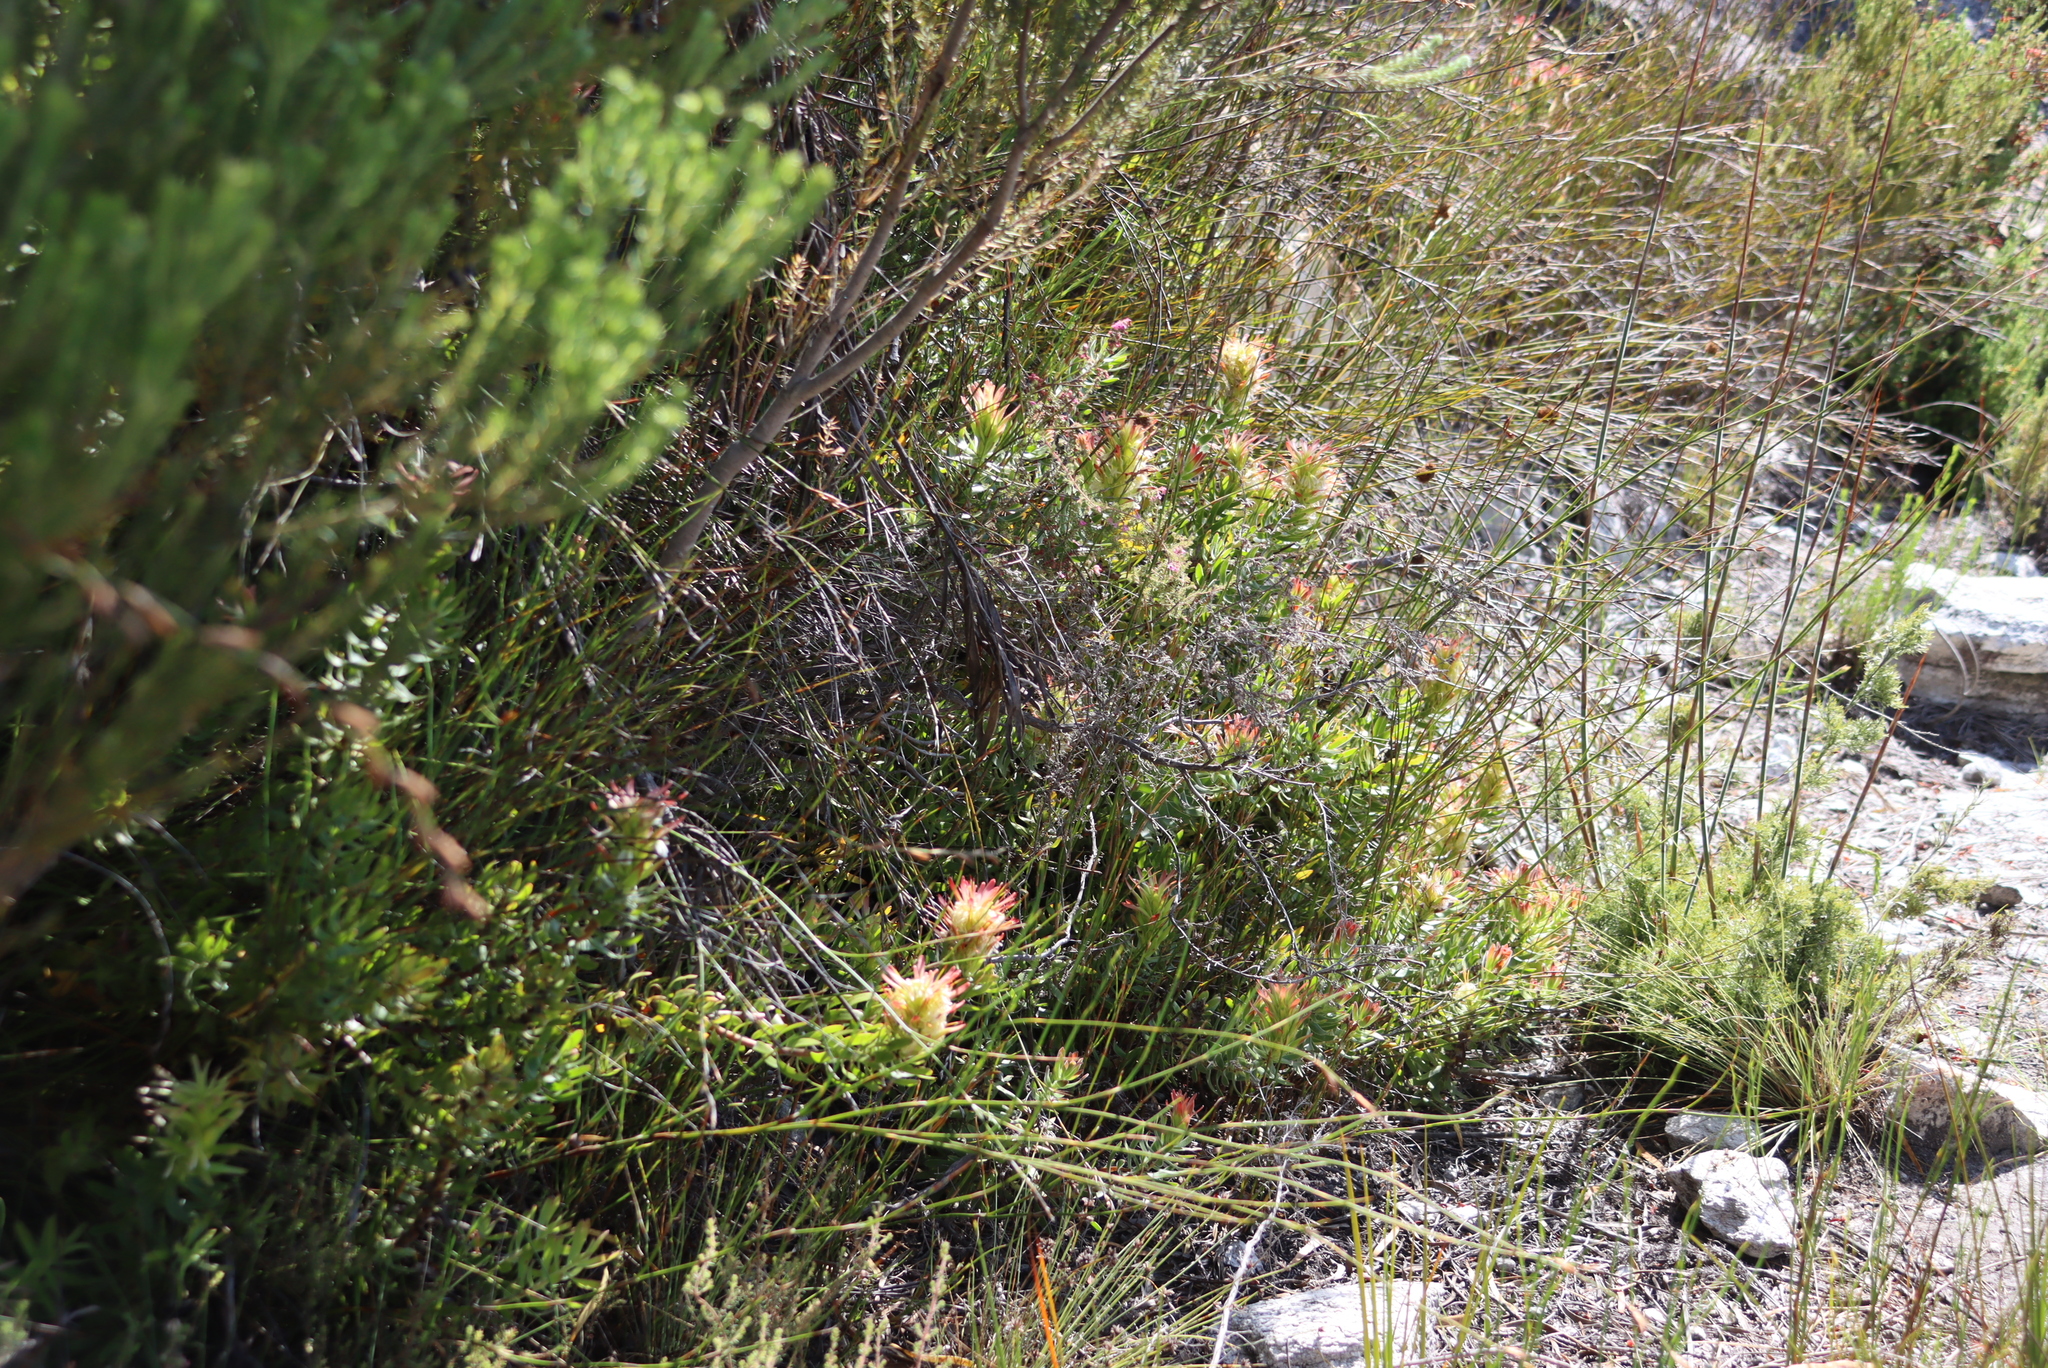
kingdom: Plantae
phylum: Tracheophyta
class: Magnoliopsida
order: Proteales
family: Proteaceae
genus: Mimetes
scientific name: Mimetes cucullatus
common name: Common pagoda
